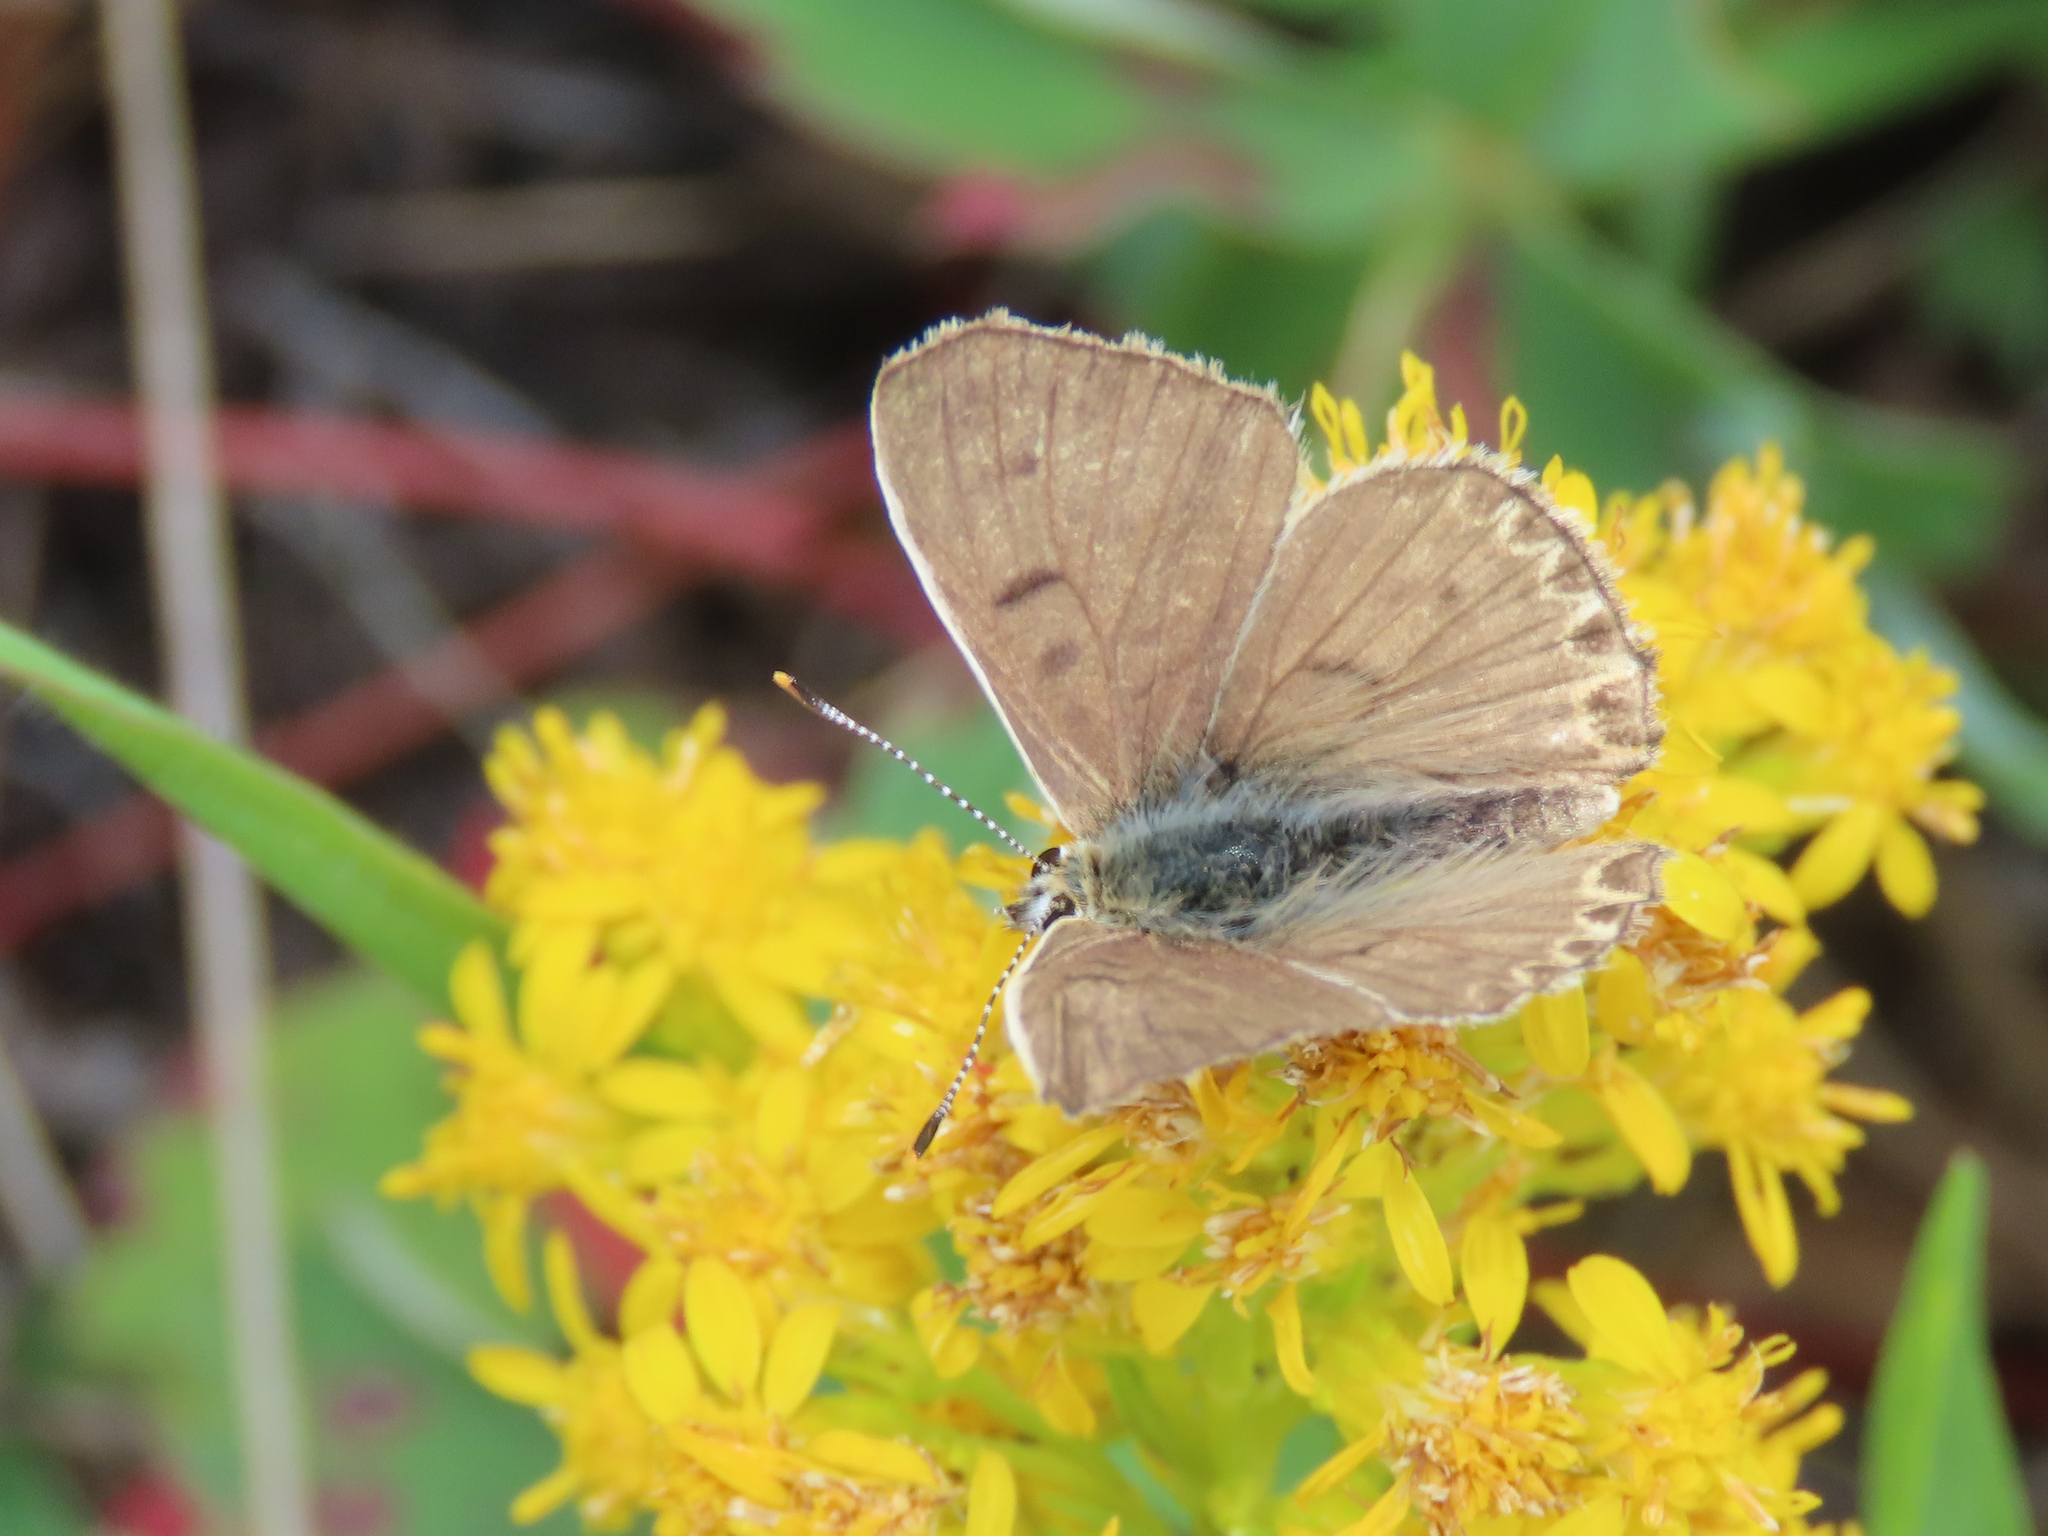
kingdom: Animalia
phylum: Arthropoda
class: Insecta
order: Lepidoptera
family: Lycaenidae
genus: Tharsalea
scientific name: Tharsalea editha
